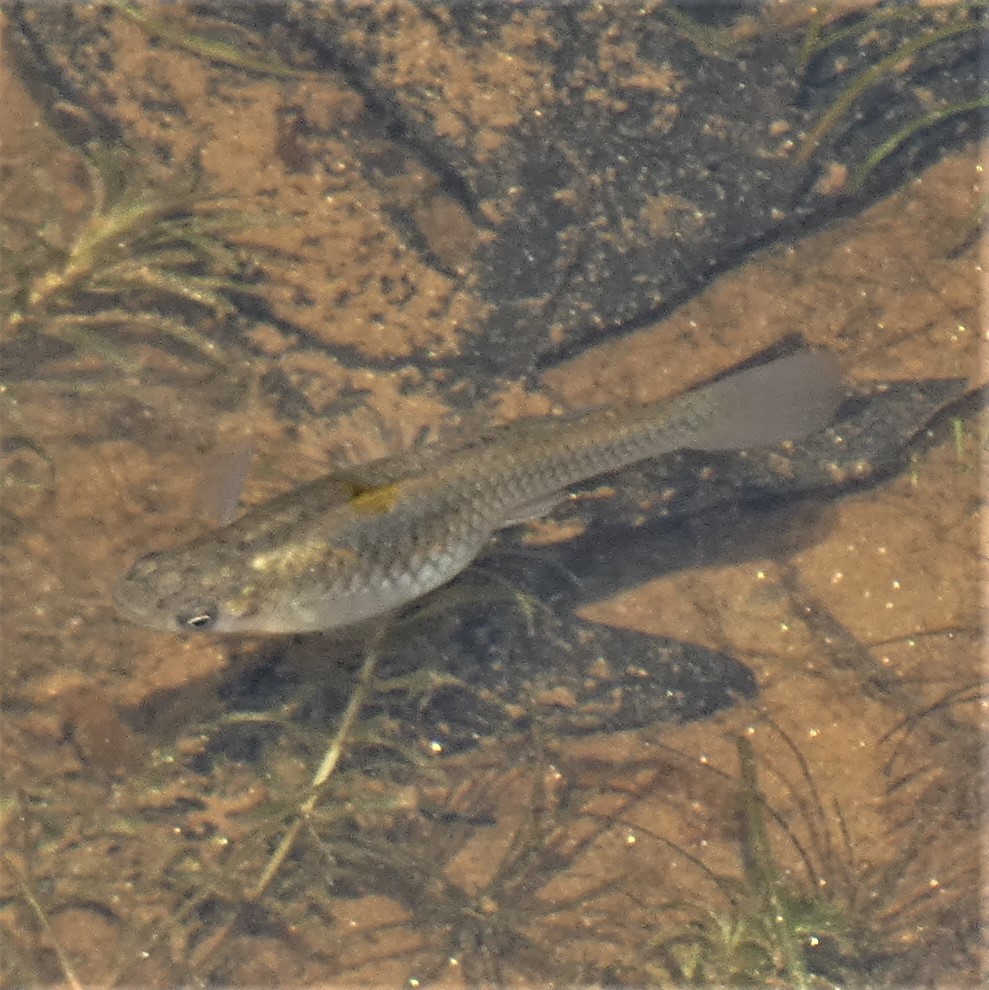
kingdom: Animalia
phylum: Chordata
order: Cyprinodontiformes
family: Poeciliidae
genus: Gambusia
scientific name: Gambusia holbrooki
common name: Eastern mosquitofish
